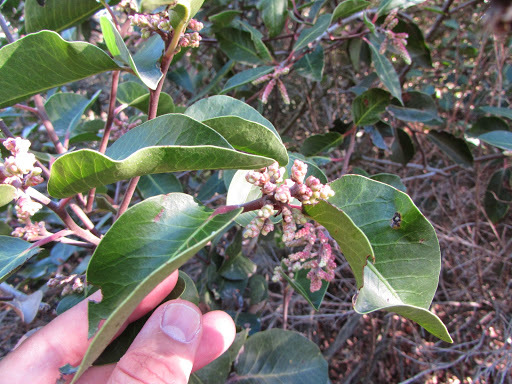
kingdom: Plantae
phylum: Tracheophyta
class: Magnoliopsida
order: Sapindales
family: Anacardiaceae
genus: Rhus
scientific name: Rhus ovata
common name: Sugar sumac
